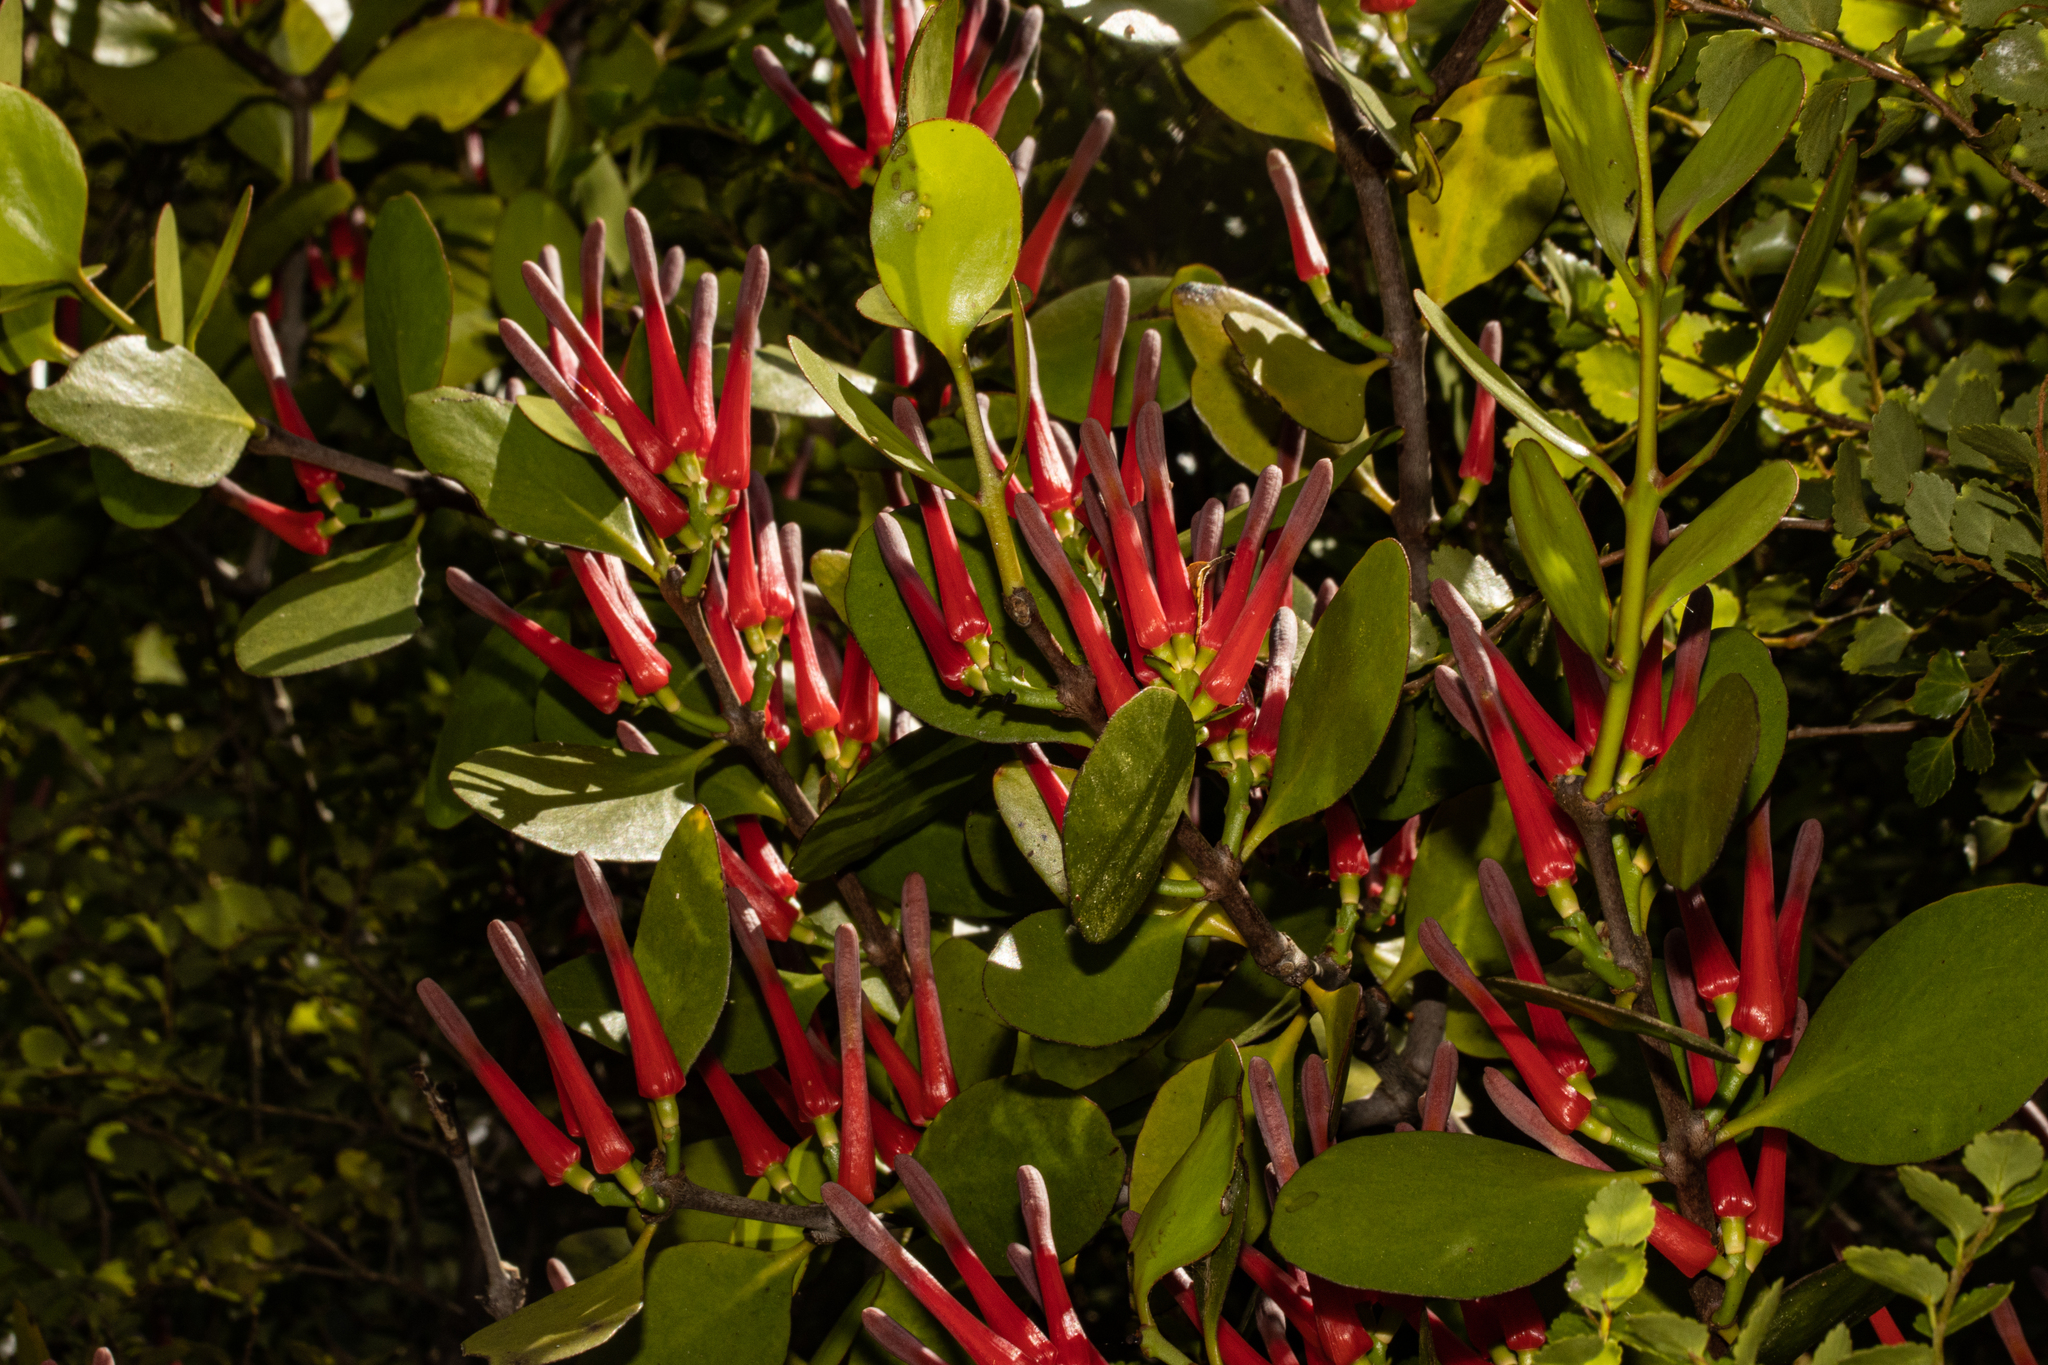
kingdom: Plantae
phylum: Tracheophyta
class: Magnoliopsida
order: Santalales
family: Loranthaceae
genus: Peraxilla
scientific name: Peraxilla colensoi
